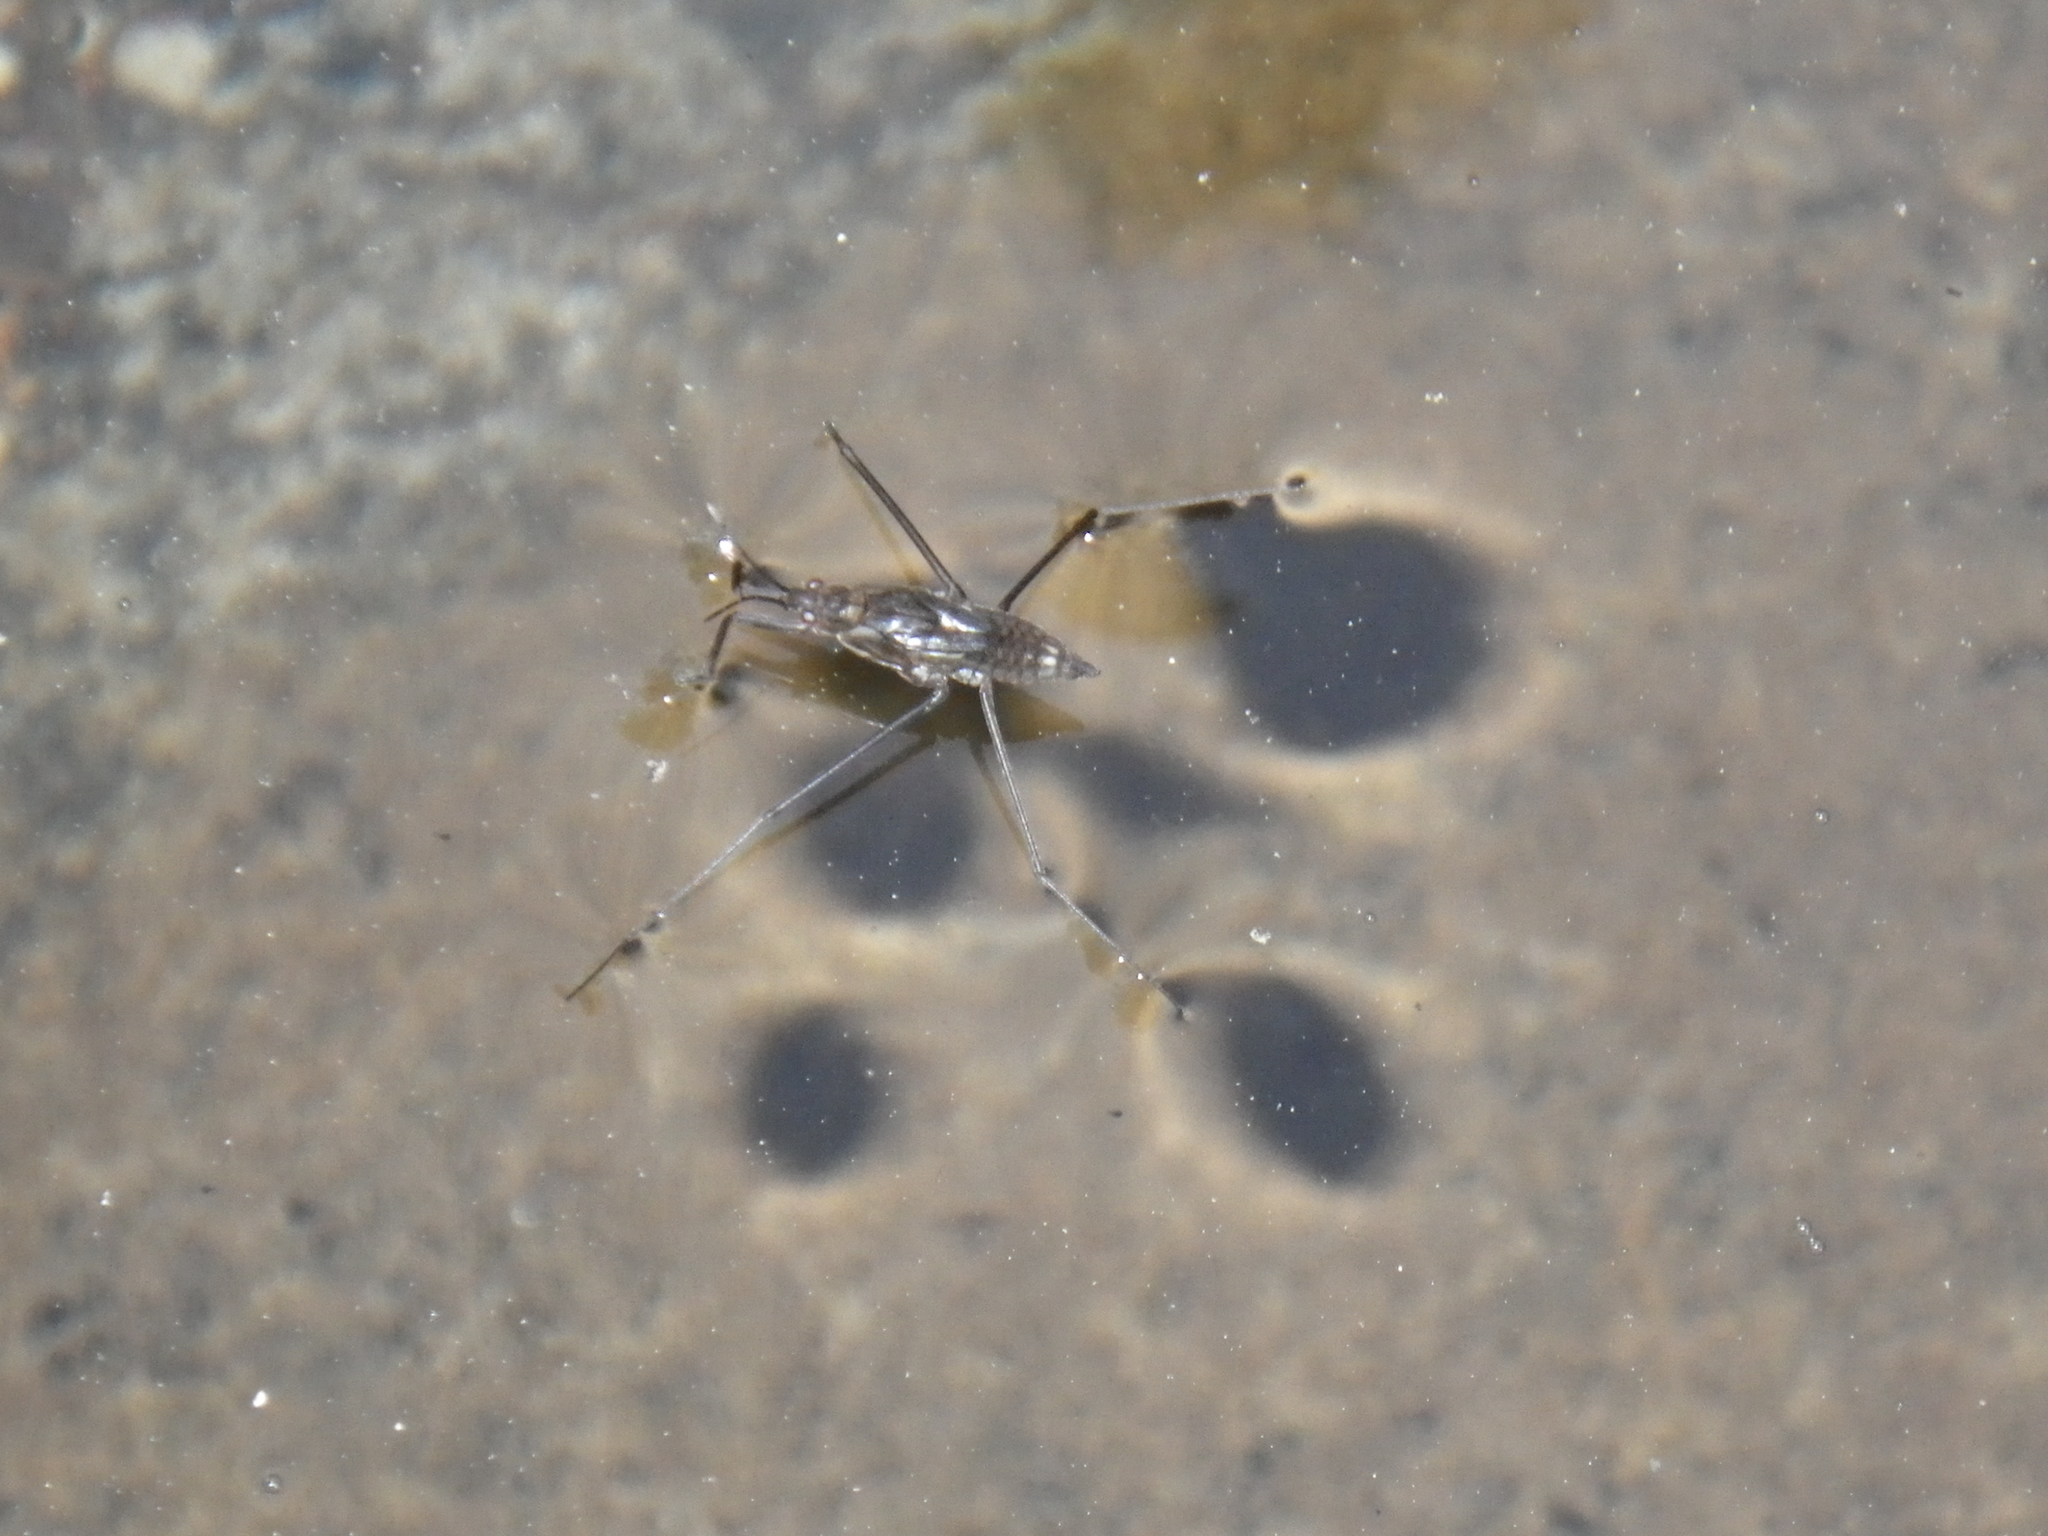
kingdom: Animalia
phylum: Arthropoda
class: Insecta
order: Hemiptera
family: Gerridae
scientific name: Gerridae
